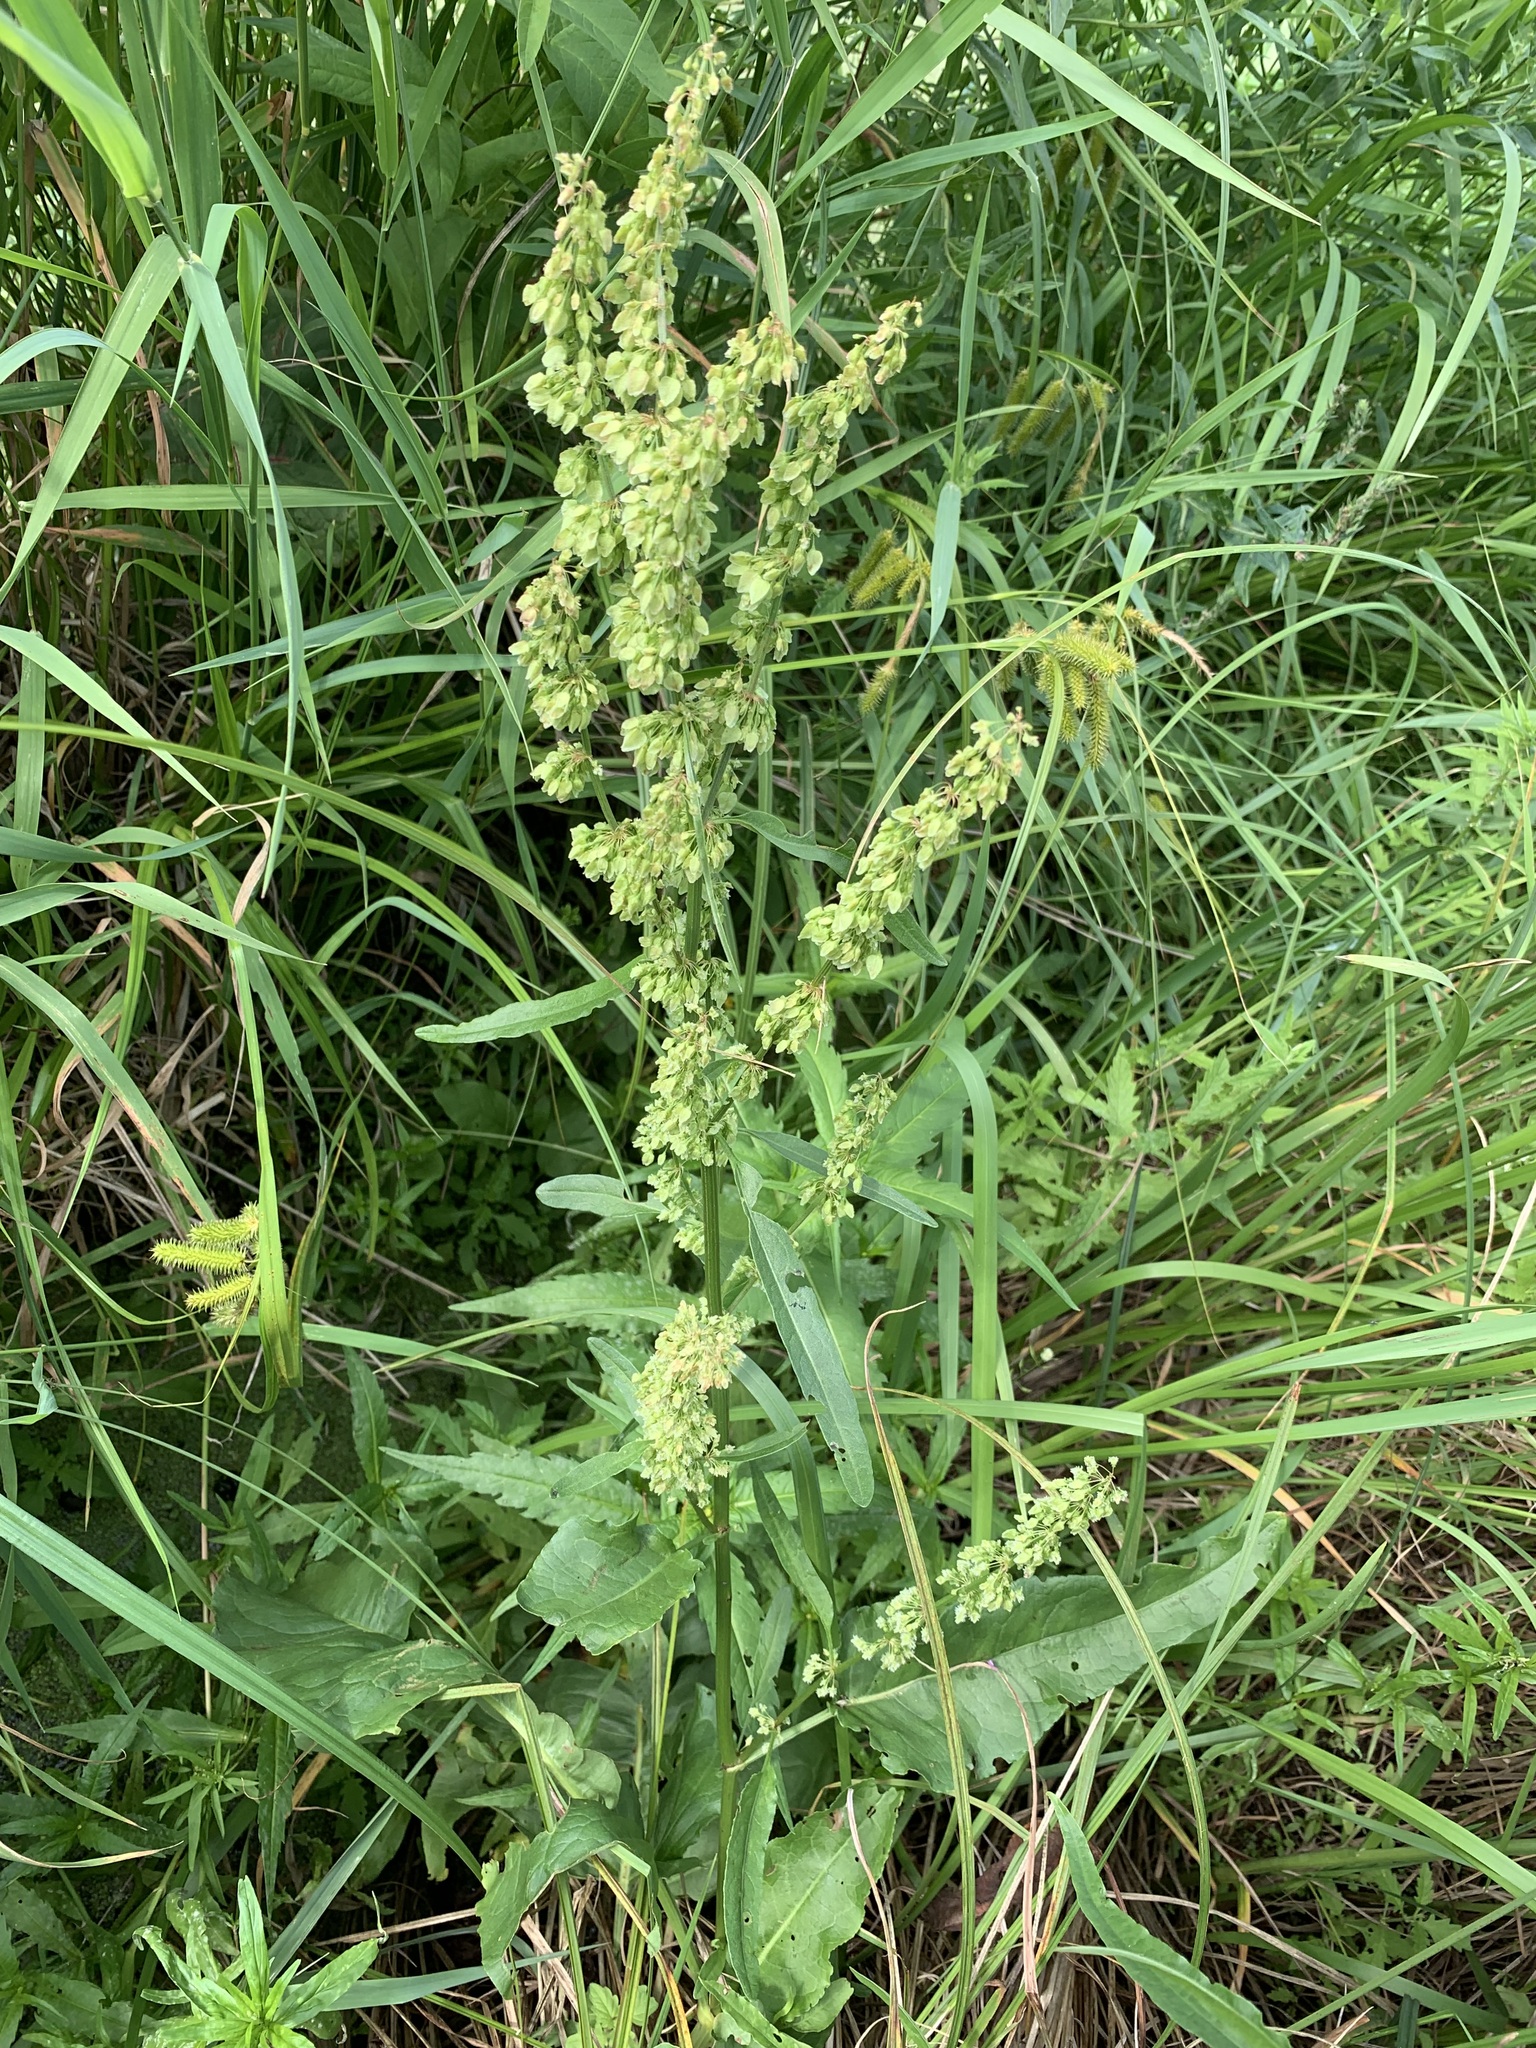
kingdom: Plantae
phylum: Tracheophyta
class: Magnoliopsida
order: Caryophyllales
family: Polygonaceae
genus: Rumex
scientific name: Rumex aquaticus
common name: Scottish dock
